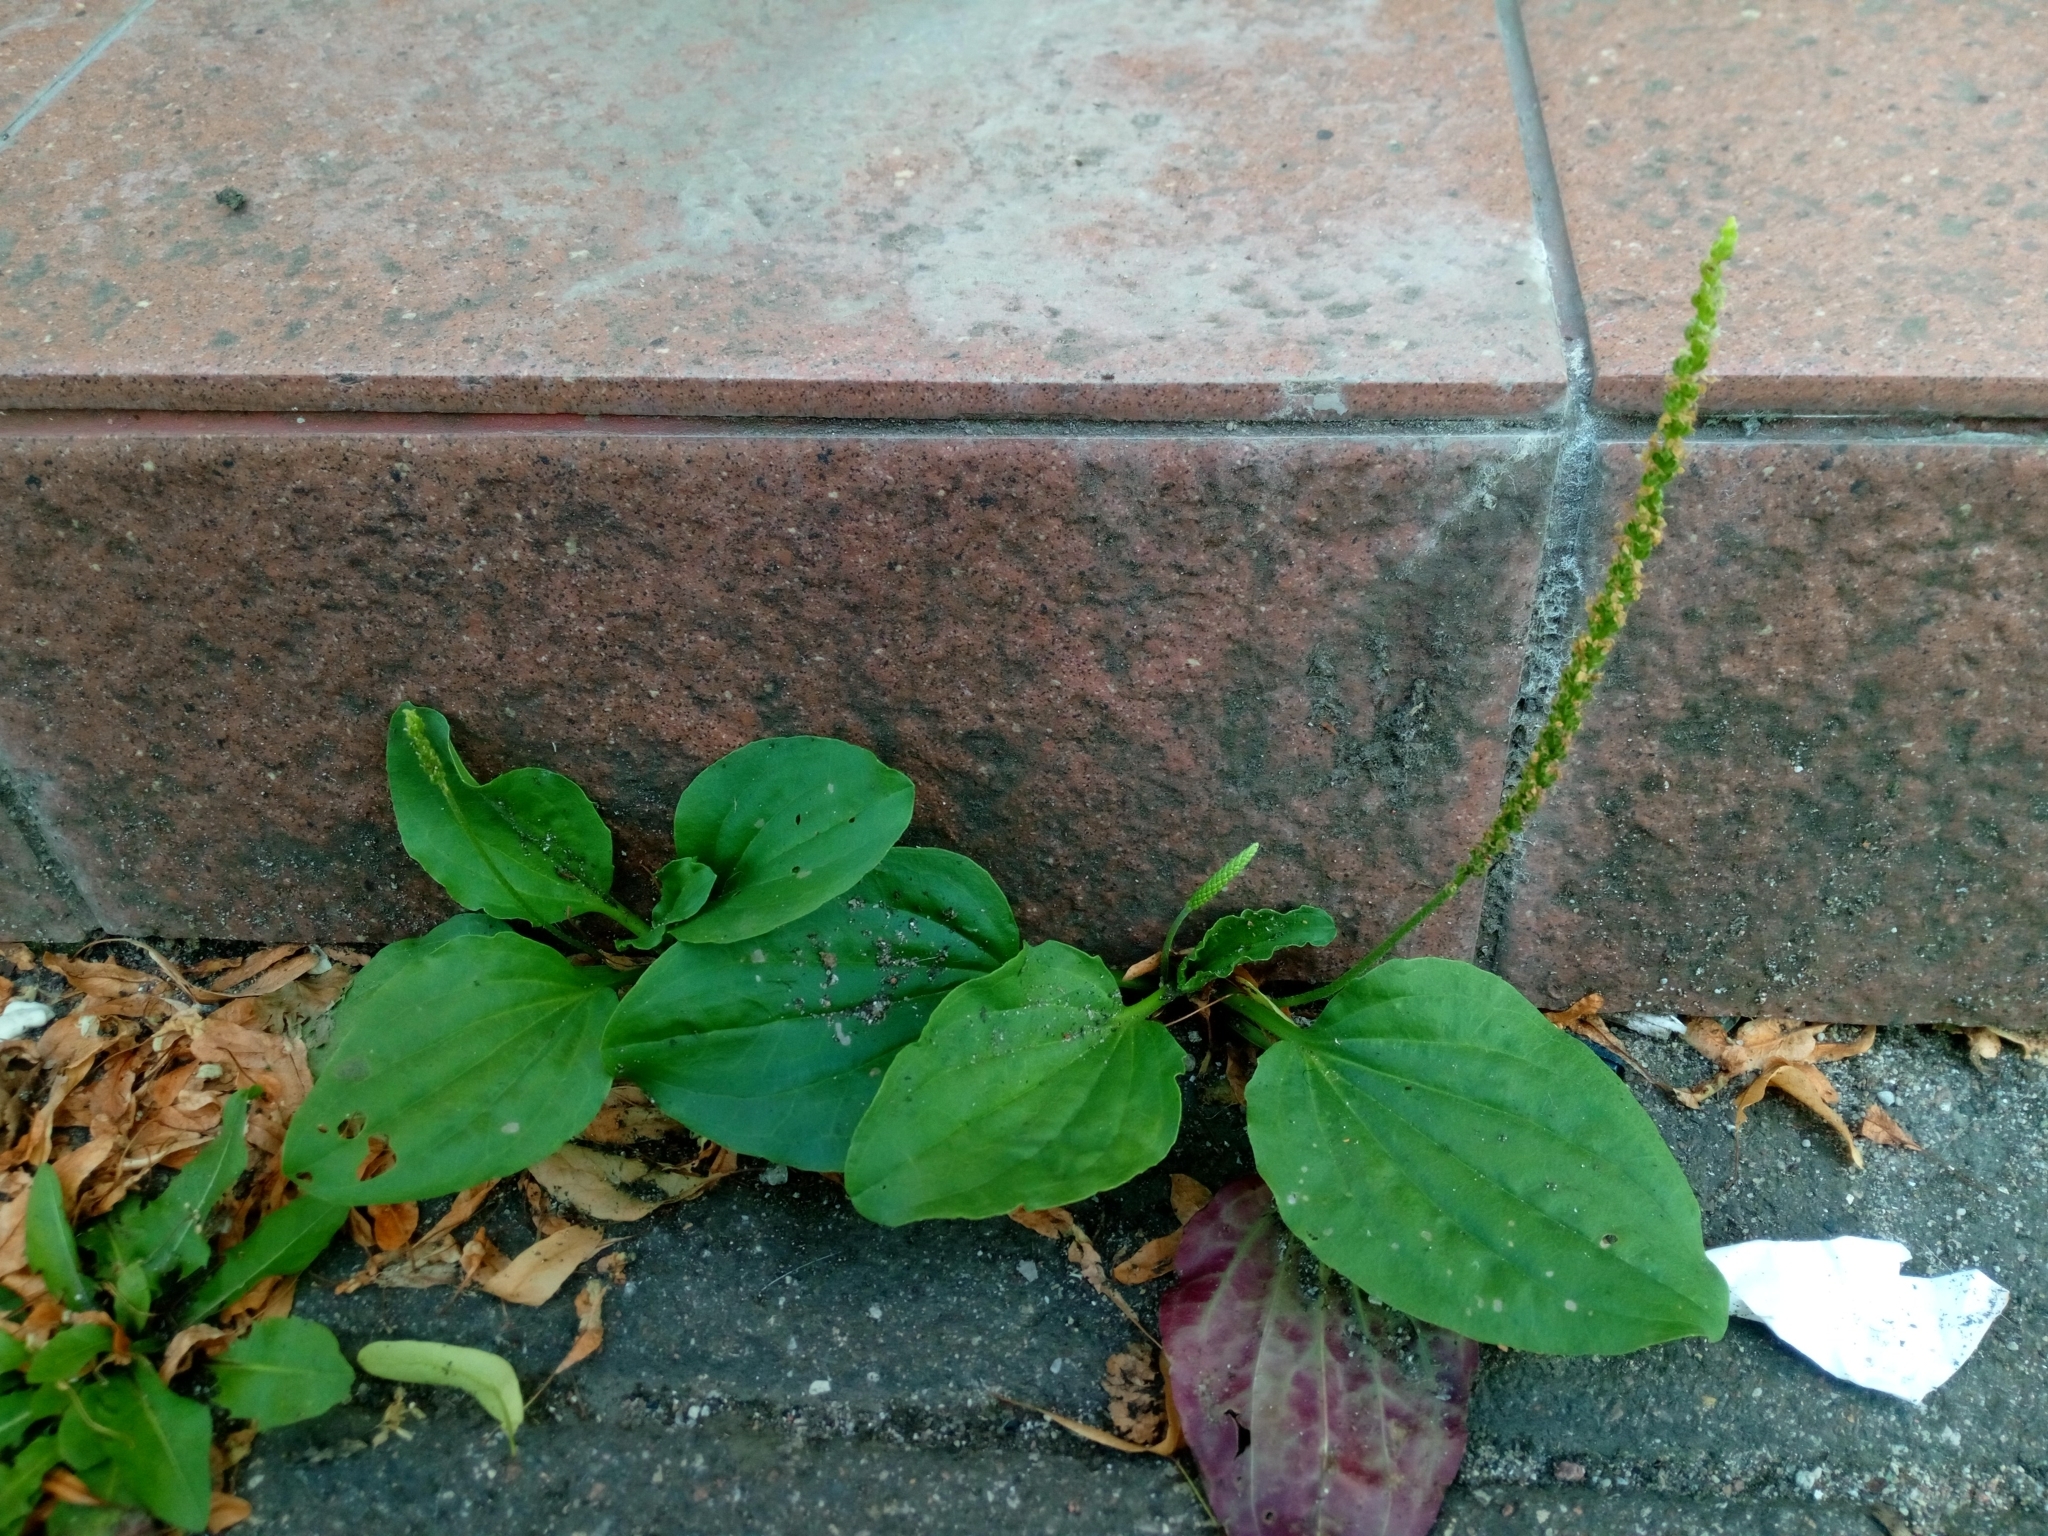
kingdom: Plantae
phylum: Tracheophyta
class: Magnoliopsida
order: Lamiales
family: Plantaginaceae
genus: Plantago
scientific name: Plantago major
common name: Common plantain
